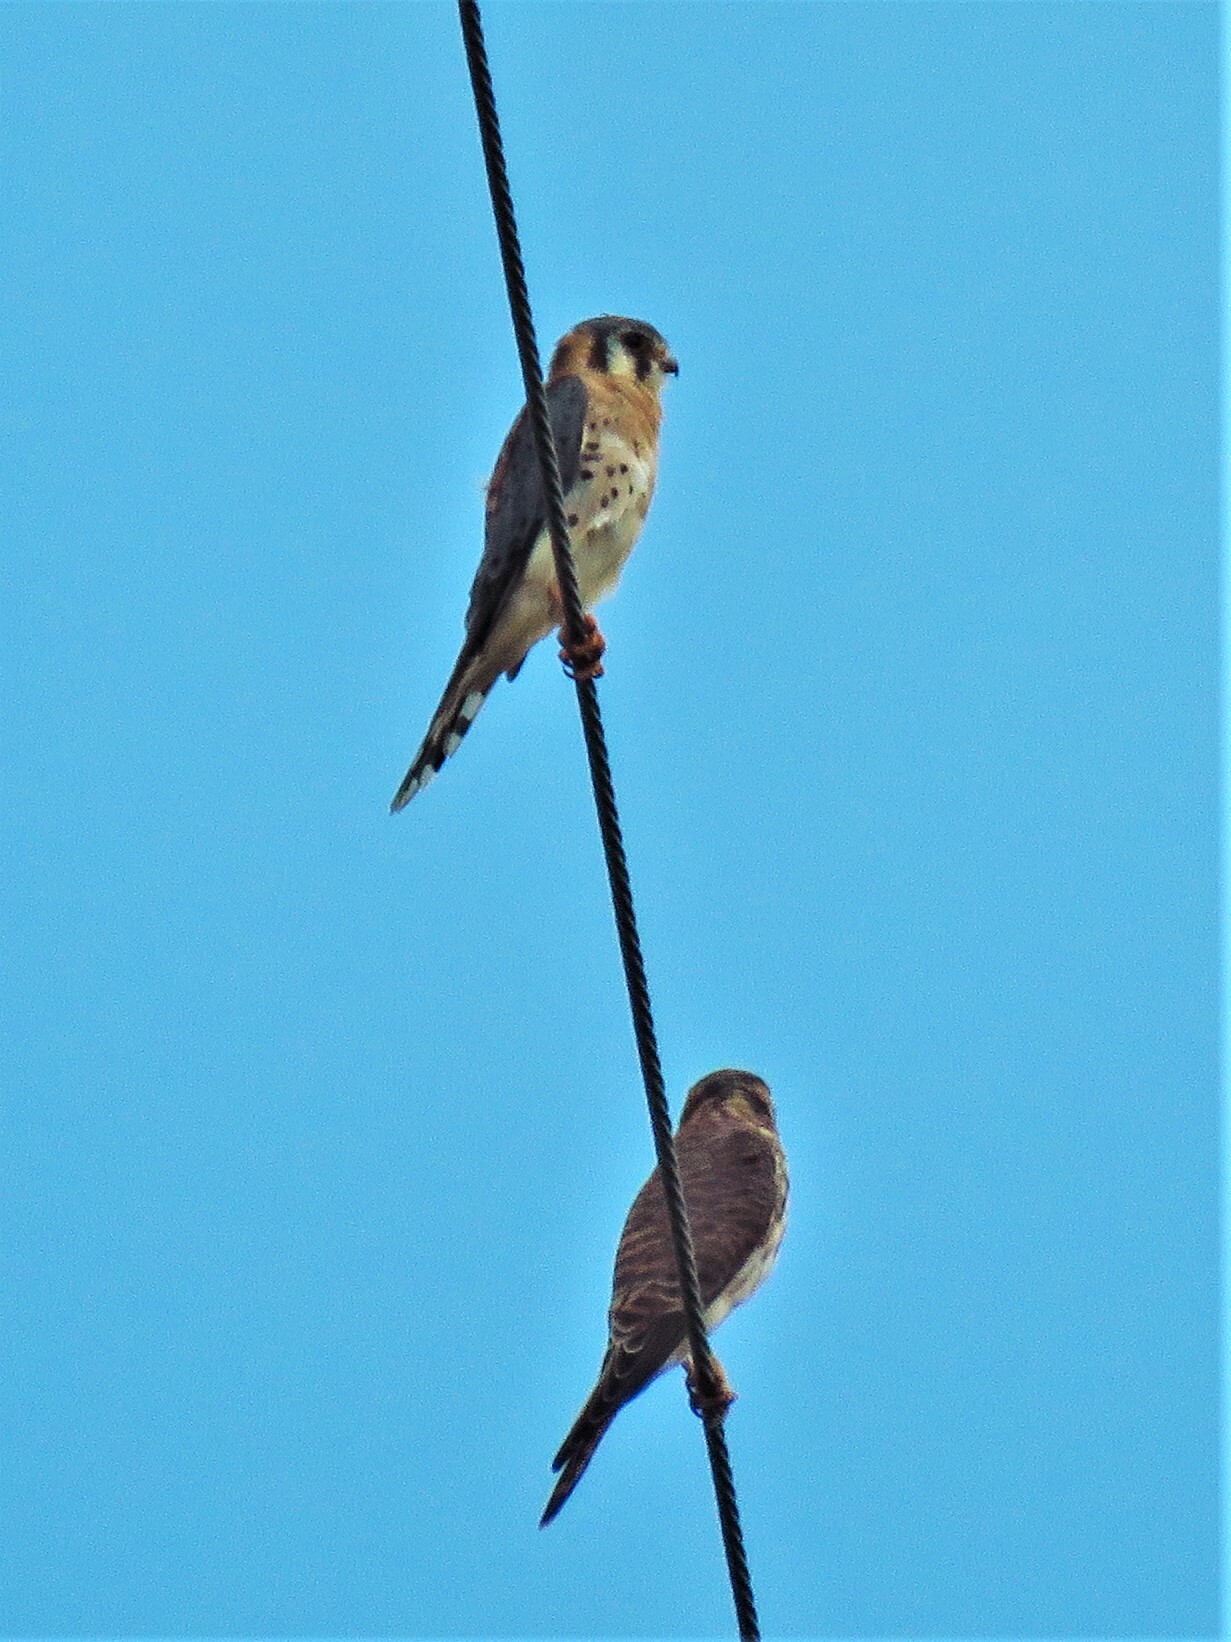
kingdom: Animalia
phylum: Chordata
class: Aves
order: Falconiformes
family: Falconidae
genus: Falco
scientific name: Falco sparverius
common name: American kestrel
